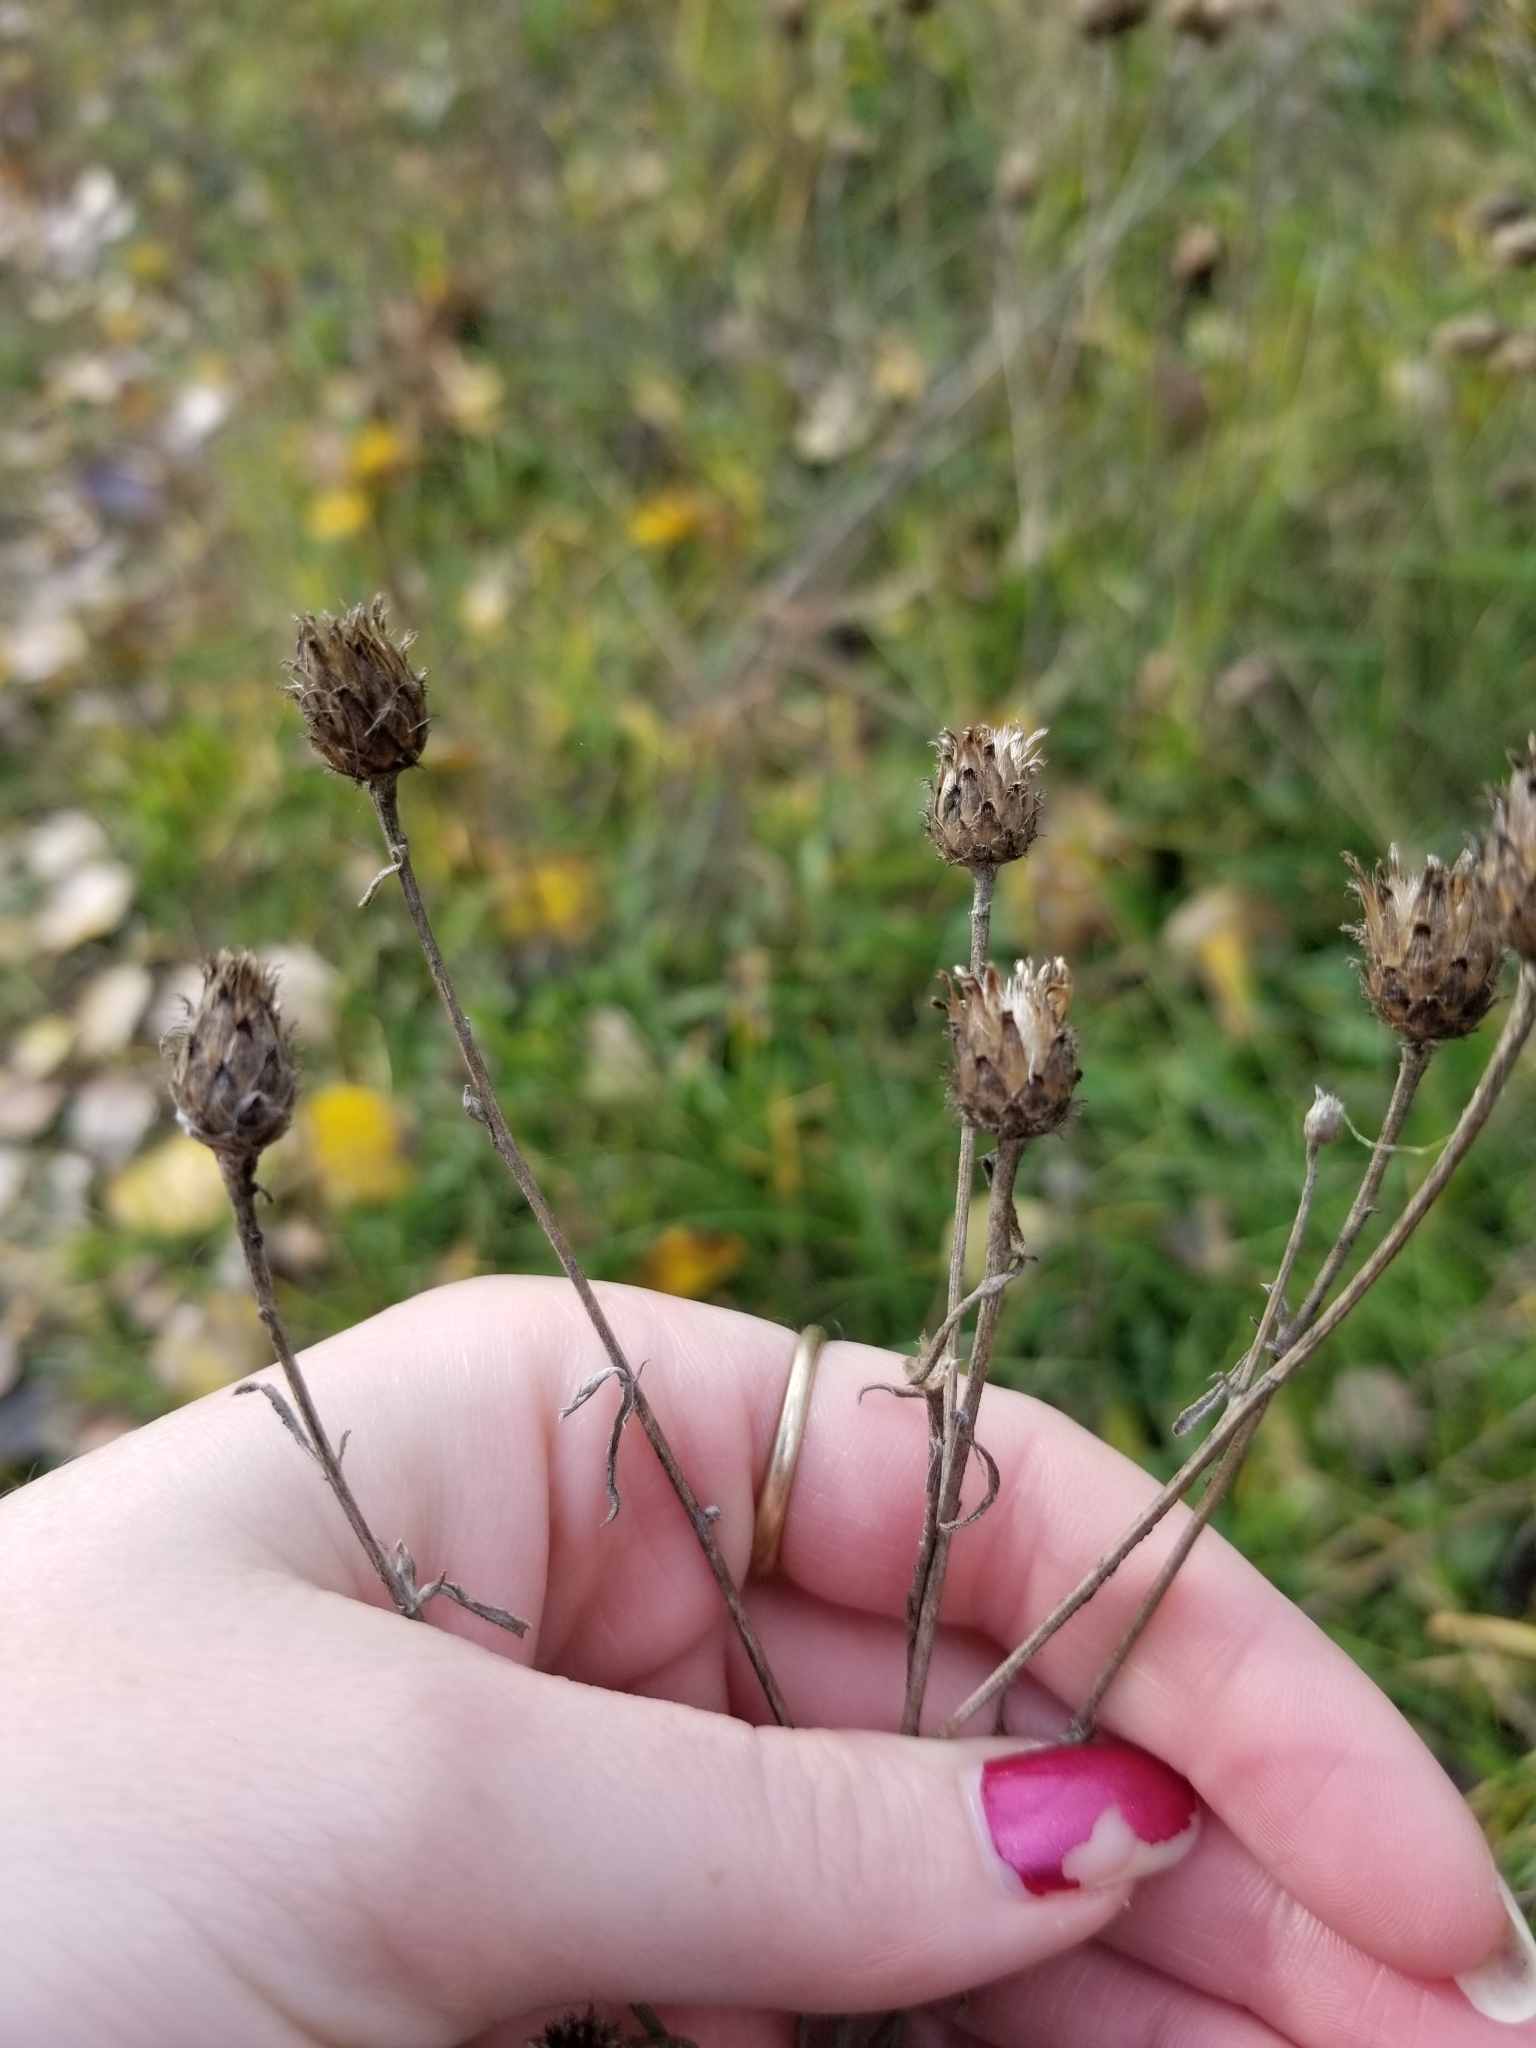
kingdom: Plantae
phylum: Tracheophyta
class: Magnoliopsida
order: Asterales
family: Asteraceae
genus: Centaurea
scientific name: Centaurea stoebe
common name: Spotted knapweed
